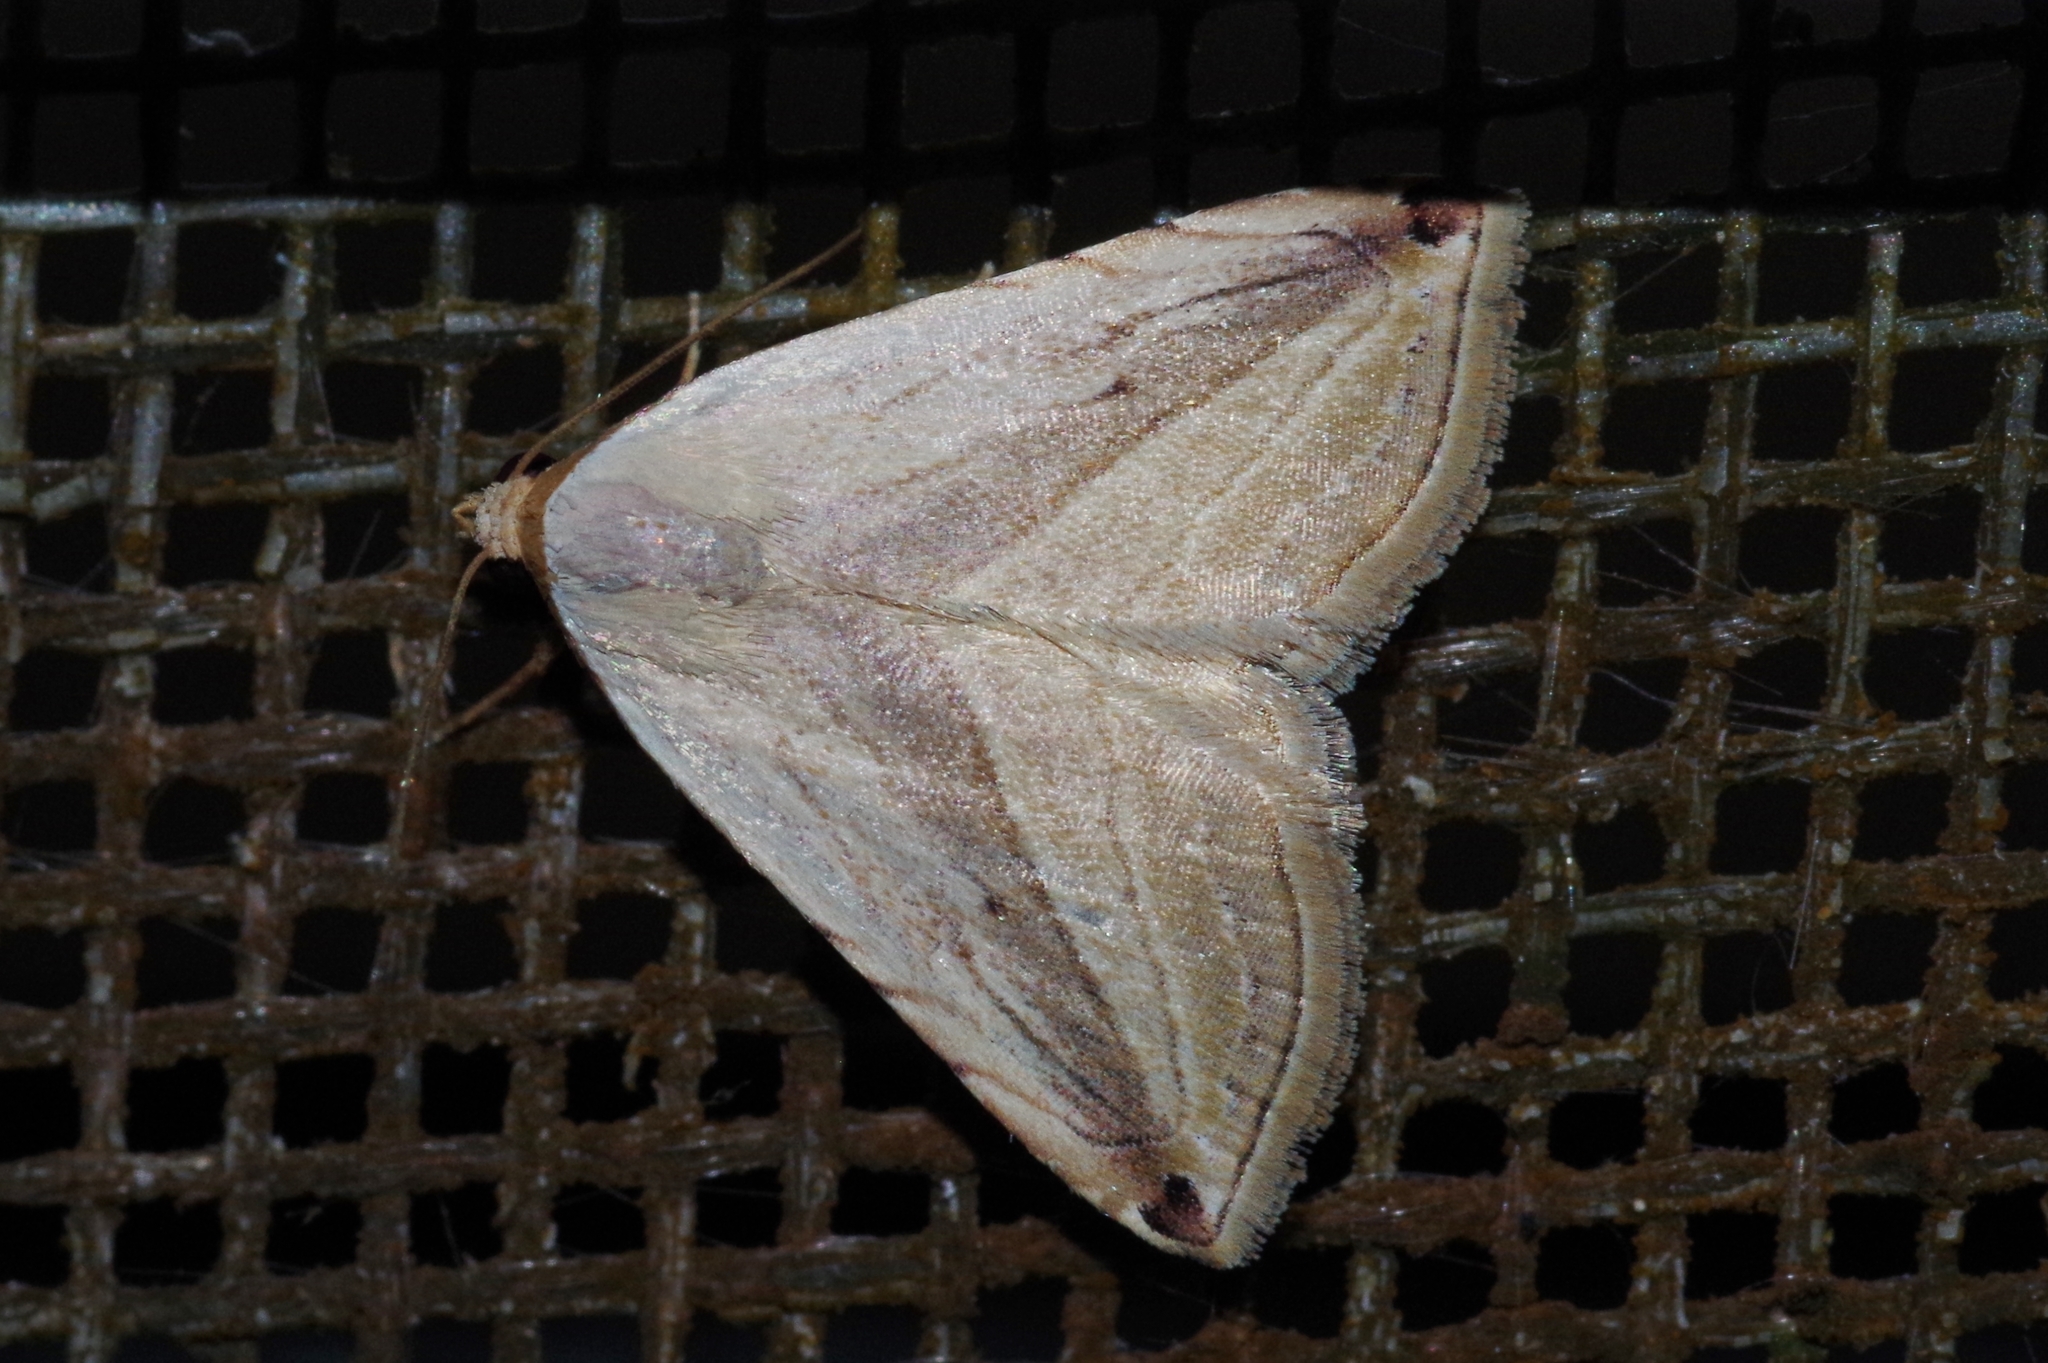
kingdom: Animalia
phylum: Arthropoda
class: Insecta
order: Lepidoptera
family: Noctuidae
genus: Honeyania
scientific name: Honeyania ragusana
